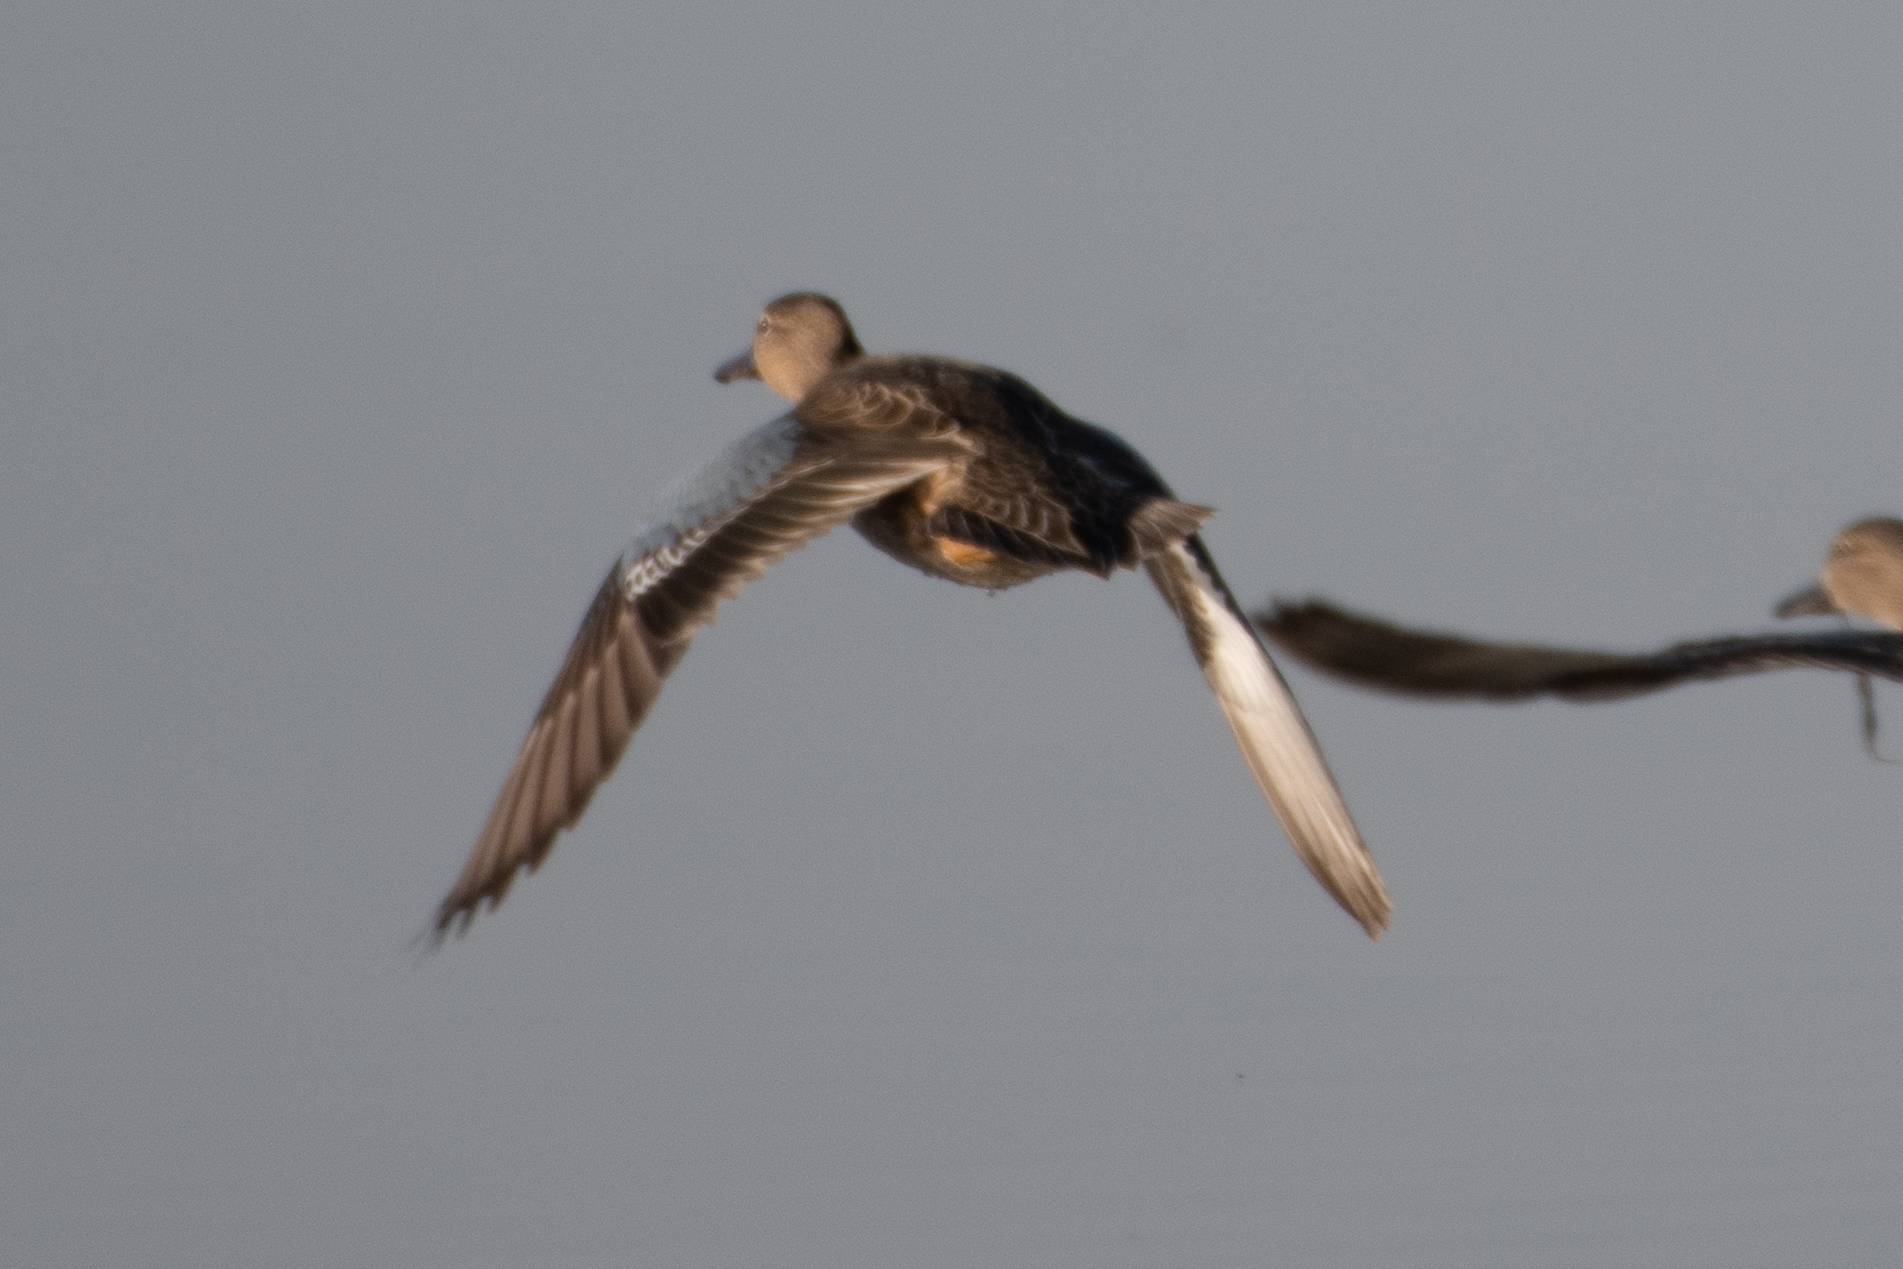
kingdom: Animalia
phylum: Chordata
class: Aves
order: Anseriformes
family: Anatidae
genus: Spatula
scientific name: Spatula
